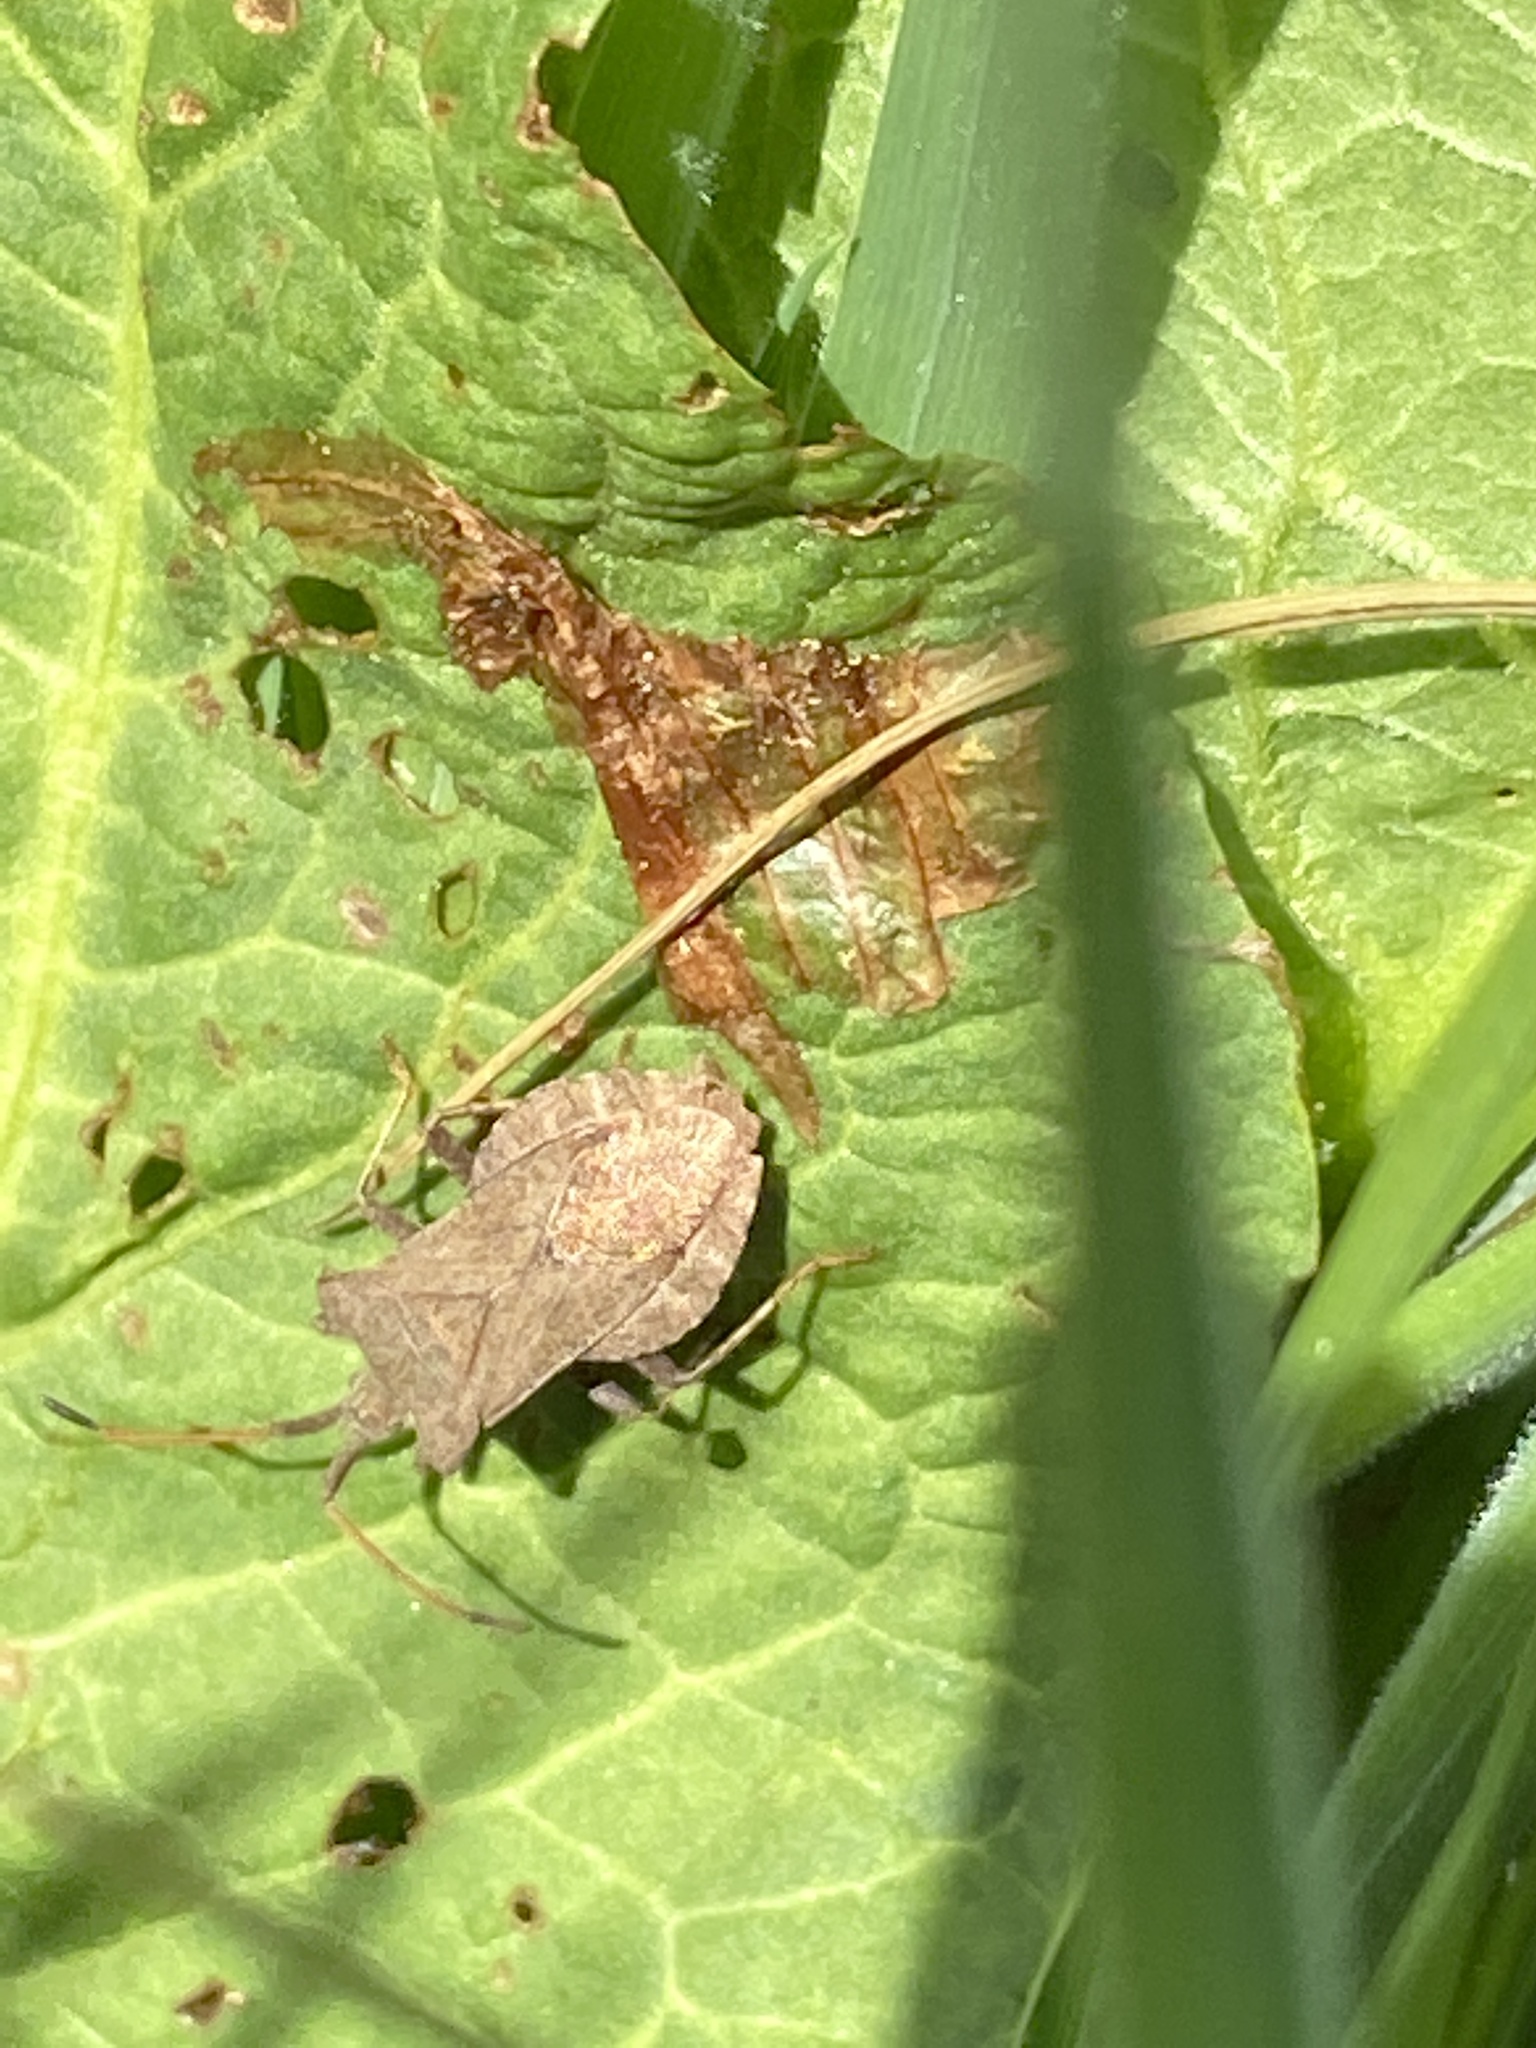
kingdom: Animalia
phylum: Arthropoda
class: Insecta
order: Hemiptera
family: Coreidae
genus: Coreus
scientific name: Coreus marginatus
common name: Dock bug
